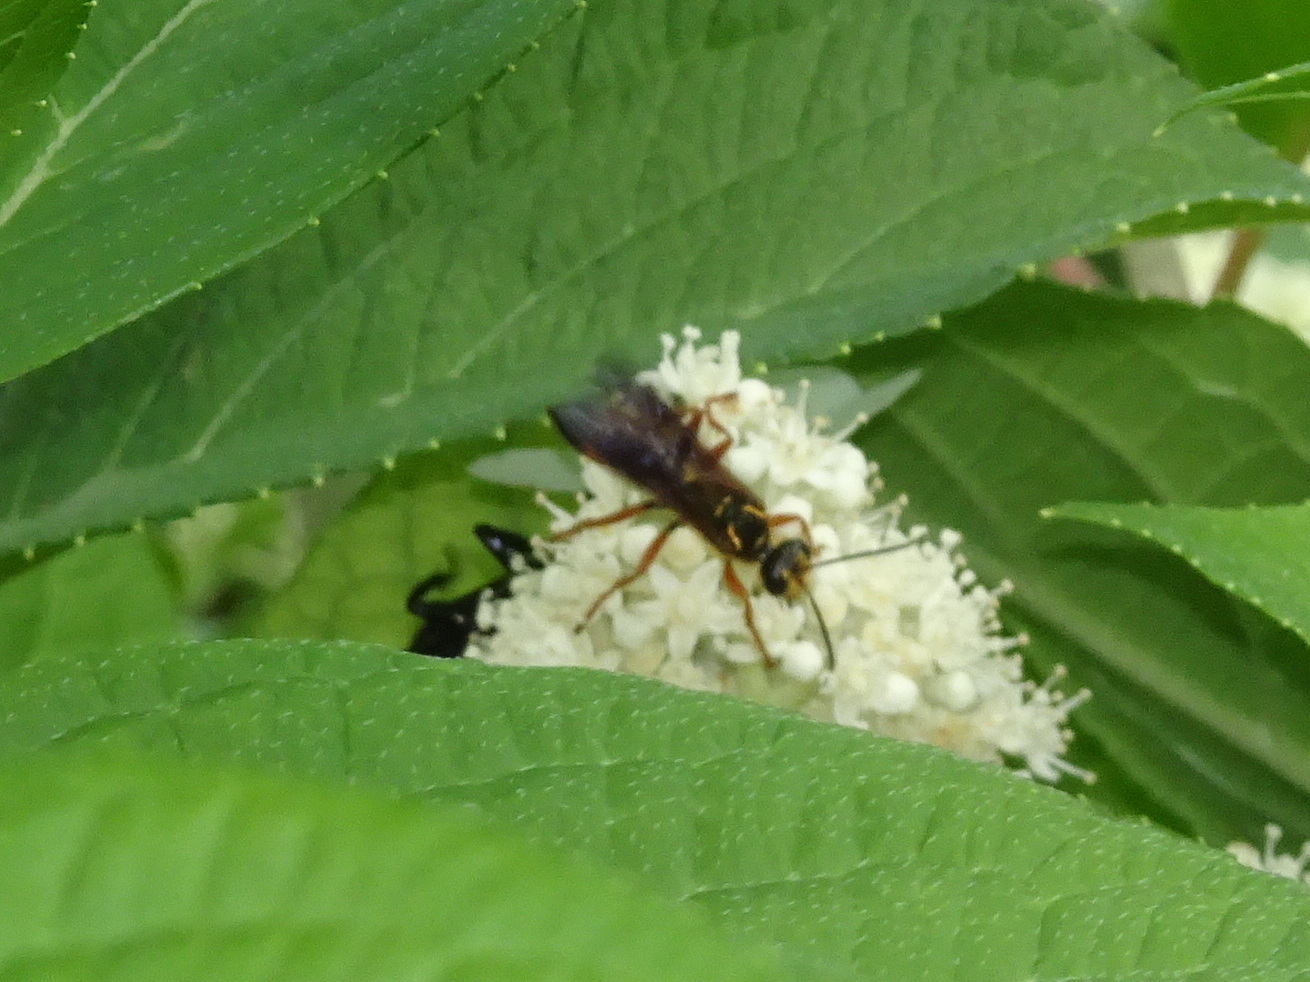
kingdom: Animalia
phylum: Arthropoda
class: Insecta
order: Hymenoptera
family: Sphecidae
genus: Sphex
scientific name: Sphex pensylvanicus
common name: Great black digger wasp
